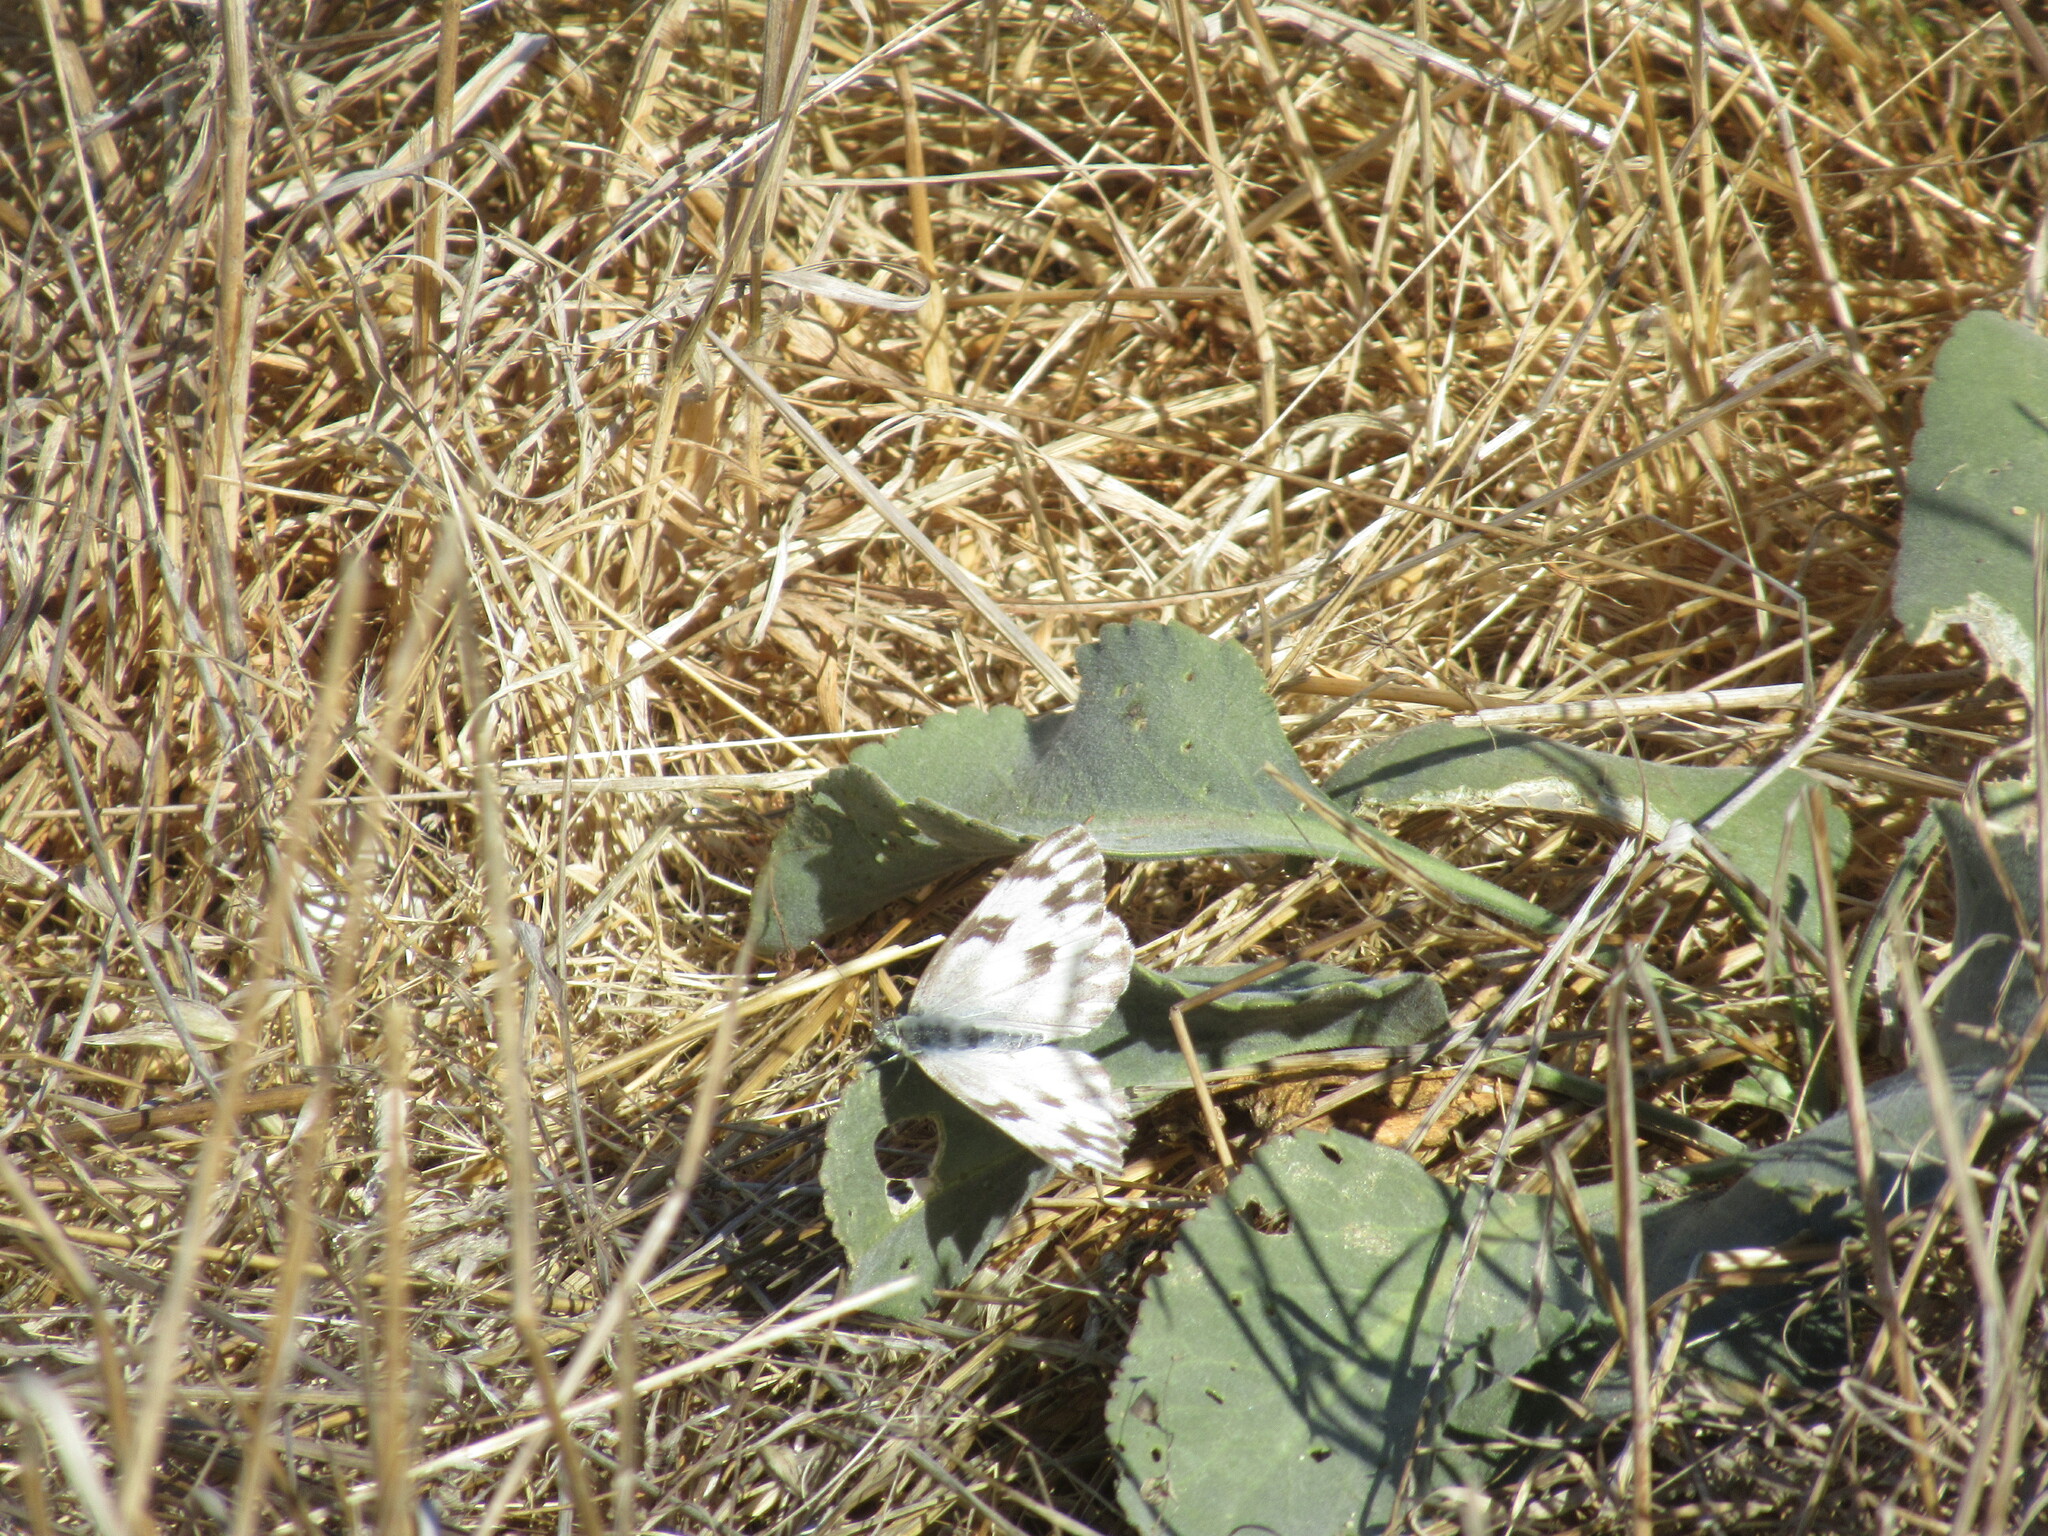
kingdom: Animalia
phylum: Arthropoda
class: Insecta
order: Lepidoptera
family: Pieridae
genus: Pontia
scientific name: Pontia protodice
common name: Checkered white
